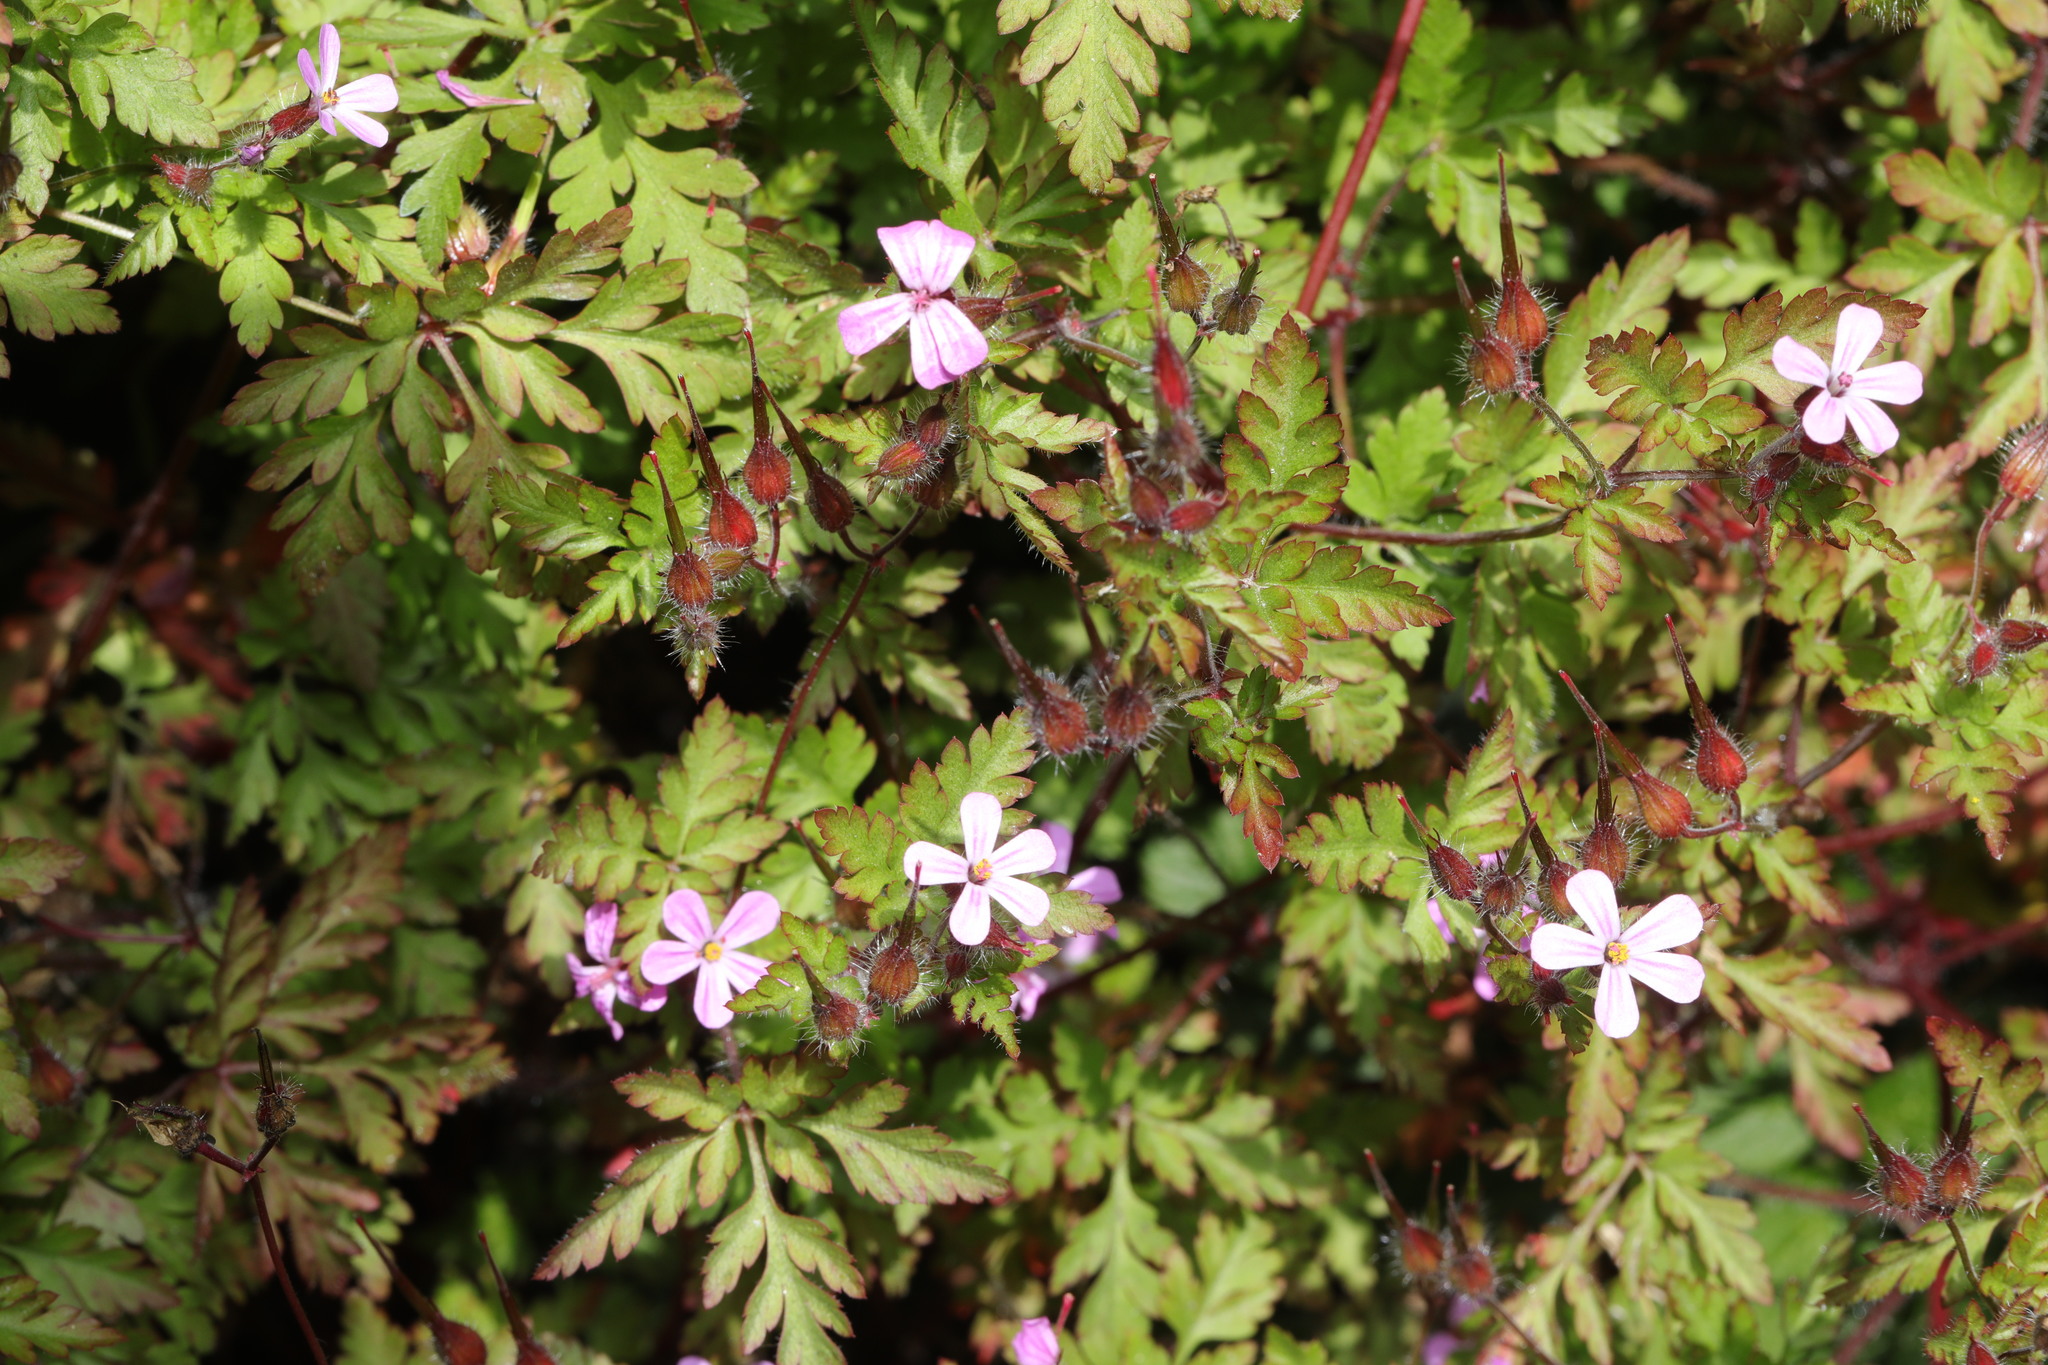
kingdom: Plantae
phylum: Tracheophyta
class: Magnoliopsida
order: Geraniales
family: Geraniaceae
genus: Geranium
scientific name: Geranium robertianum
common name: Herb-robert
